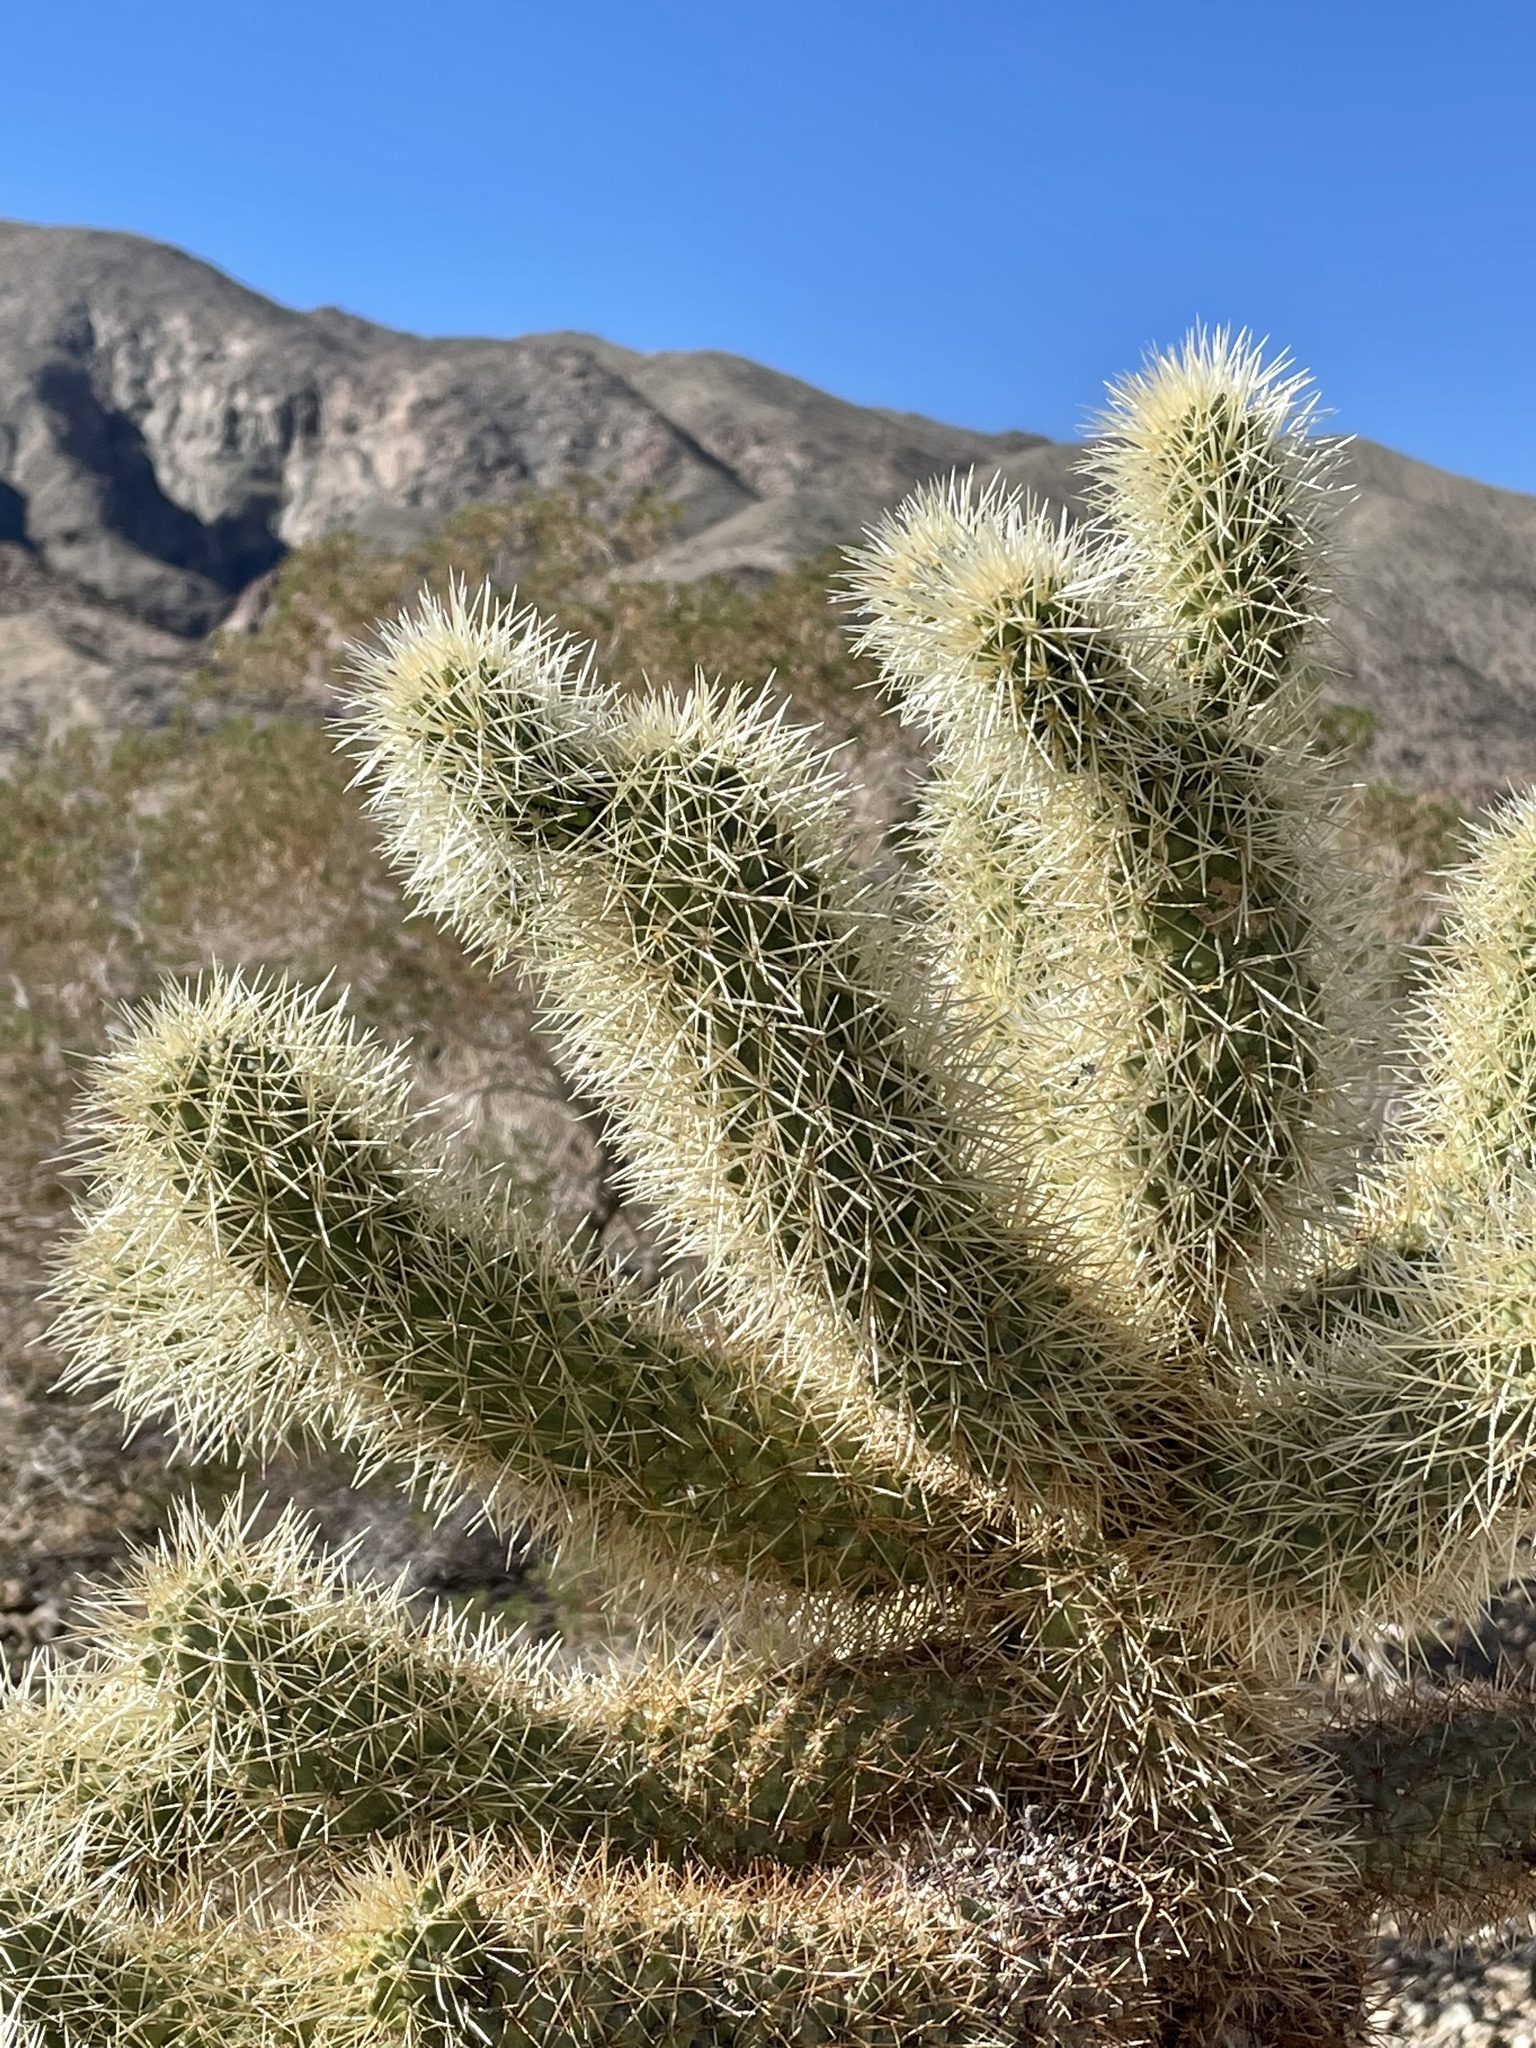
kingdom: Plantae
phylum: Tracheophyta
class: Magnoliopsida
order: Caryophyllales
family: Cactaceae
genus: Cylindropuntia
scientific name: Cylindropuntia fosbergii
